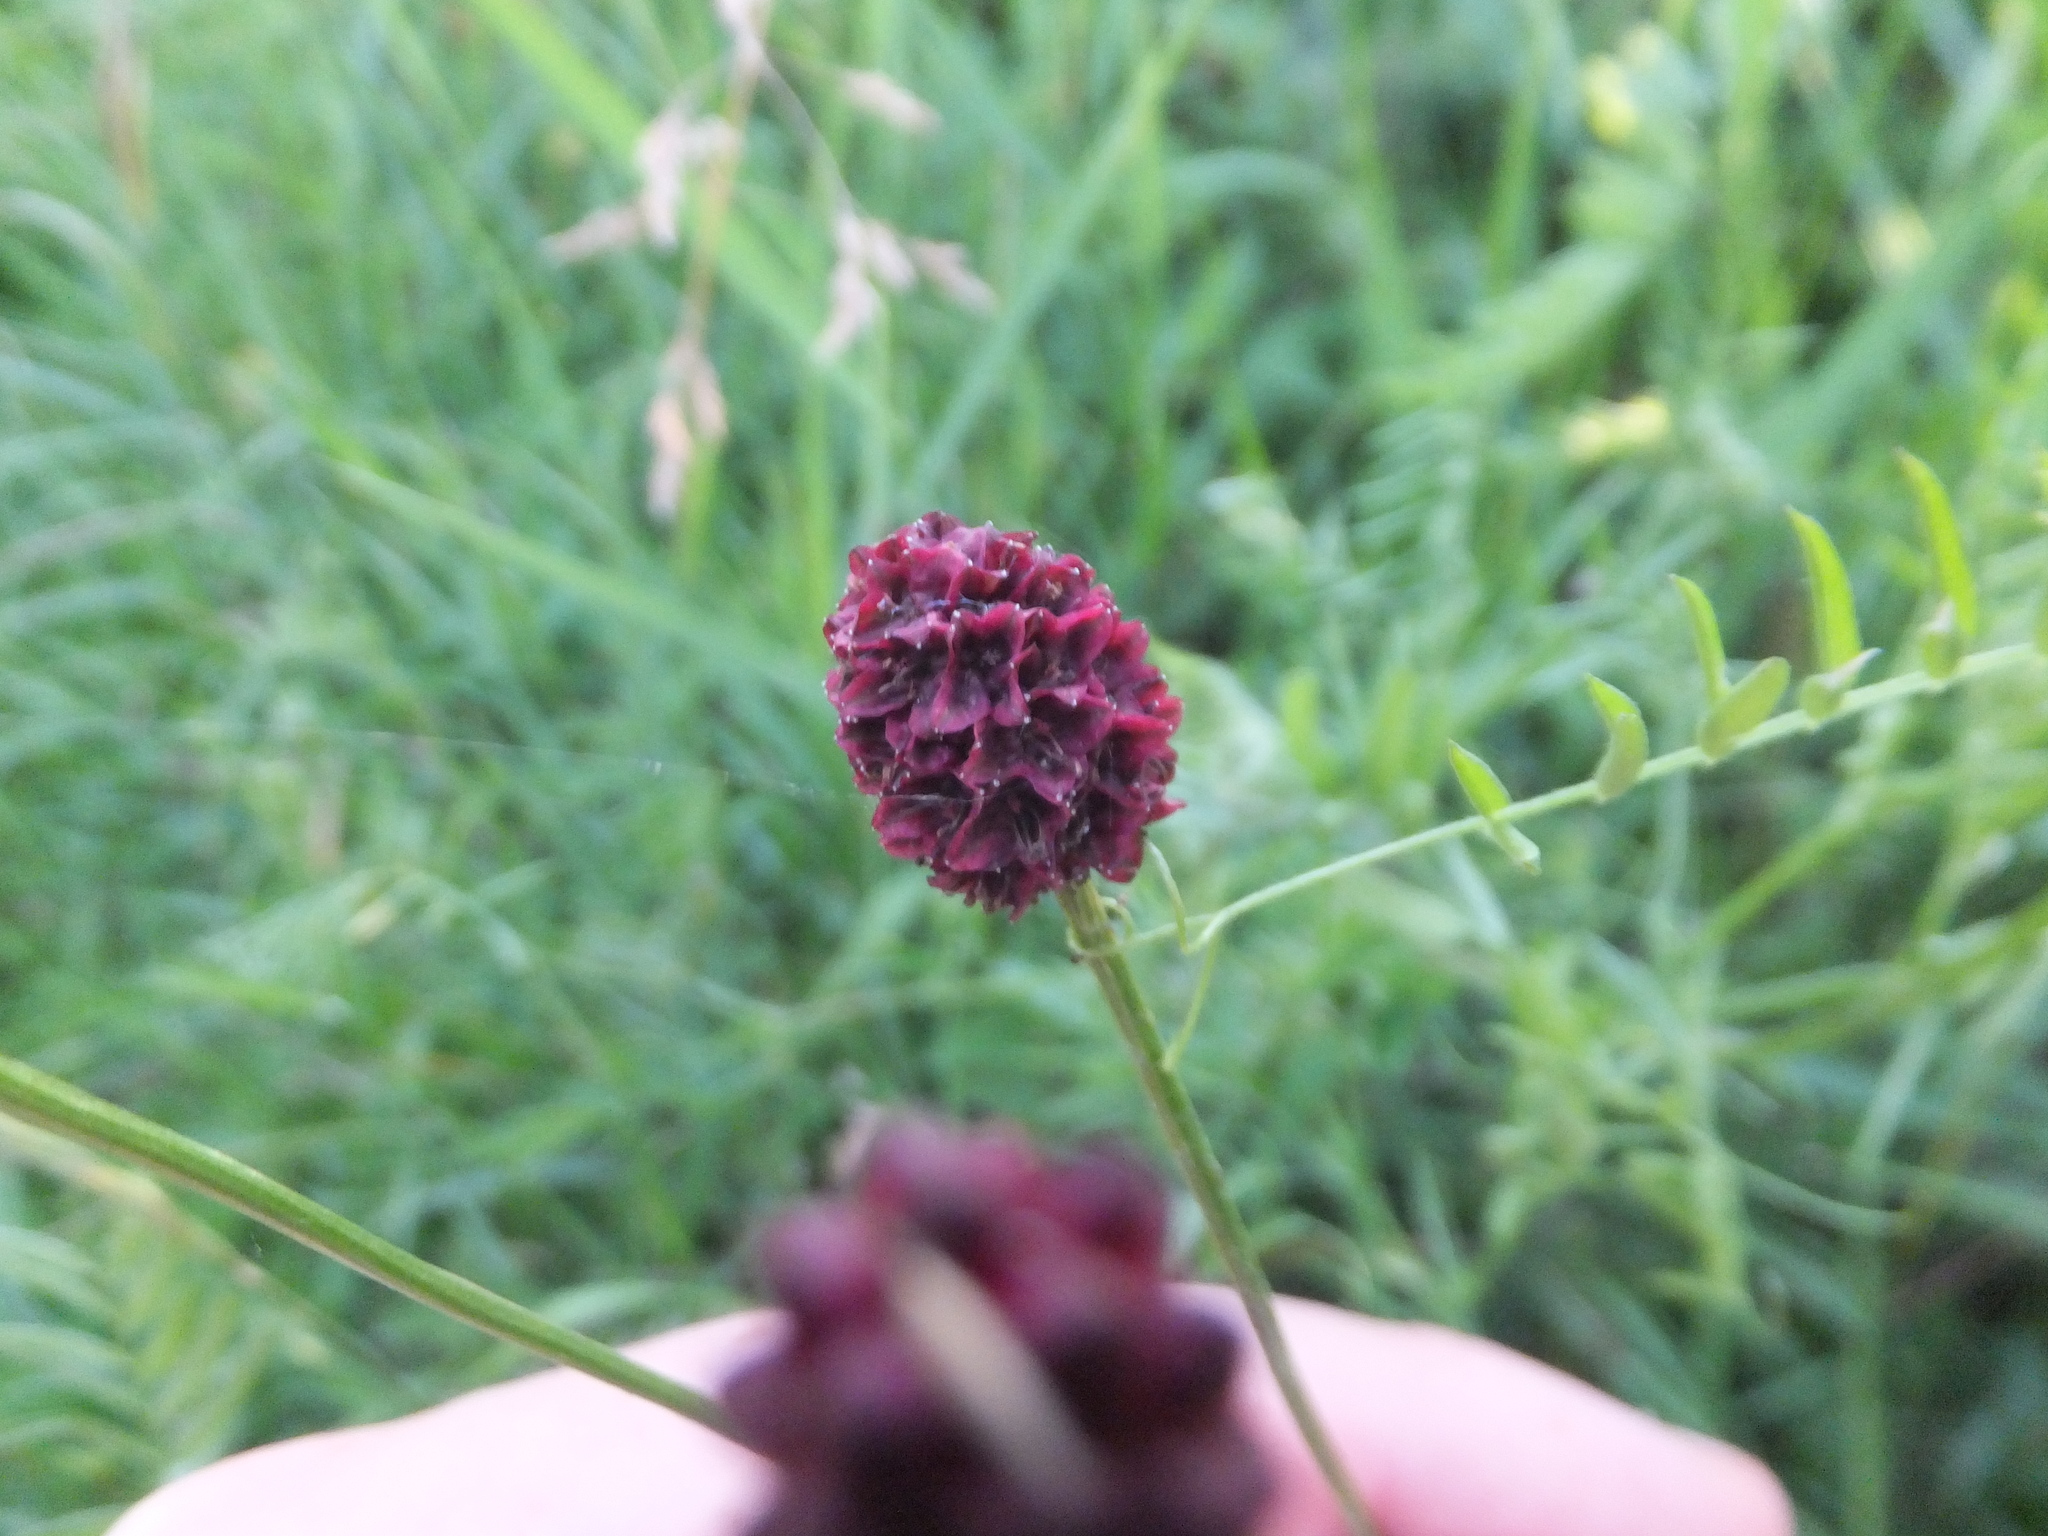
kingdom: Plantae
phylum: Tracheophyta
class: Magnoliopsida
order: Rosales
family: Rosaceae
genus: Sanguisorba
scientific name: Sanguisorba officinalis
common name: Great burnet
